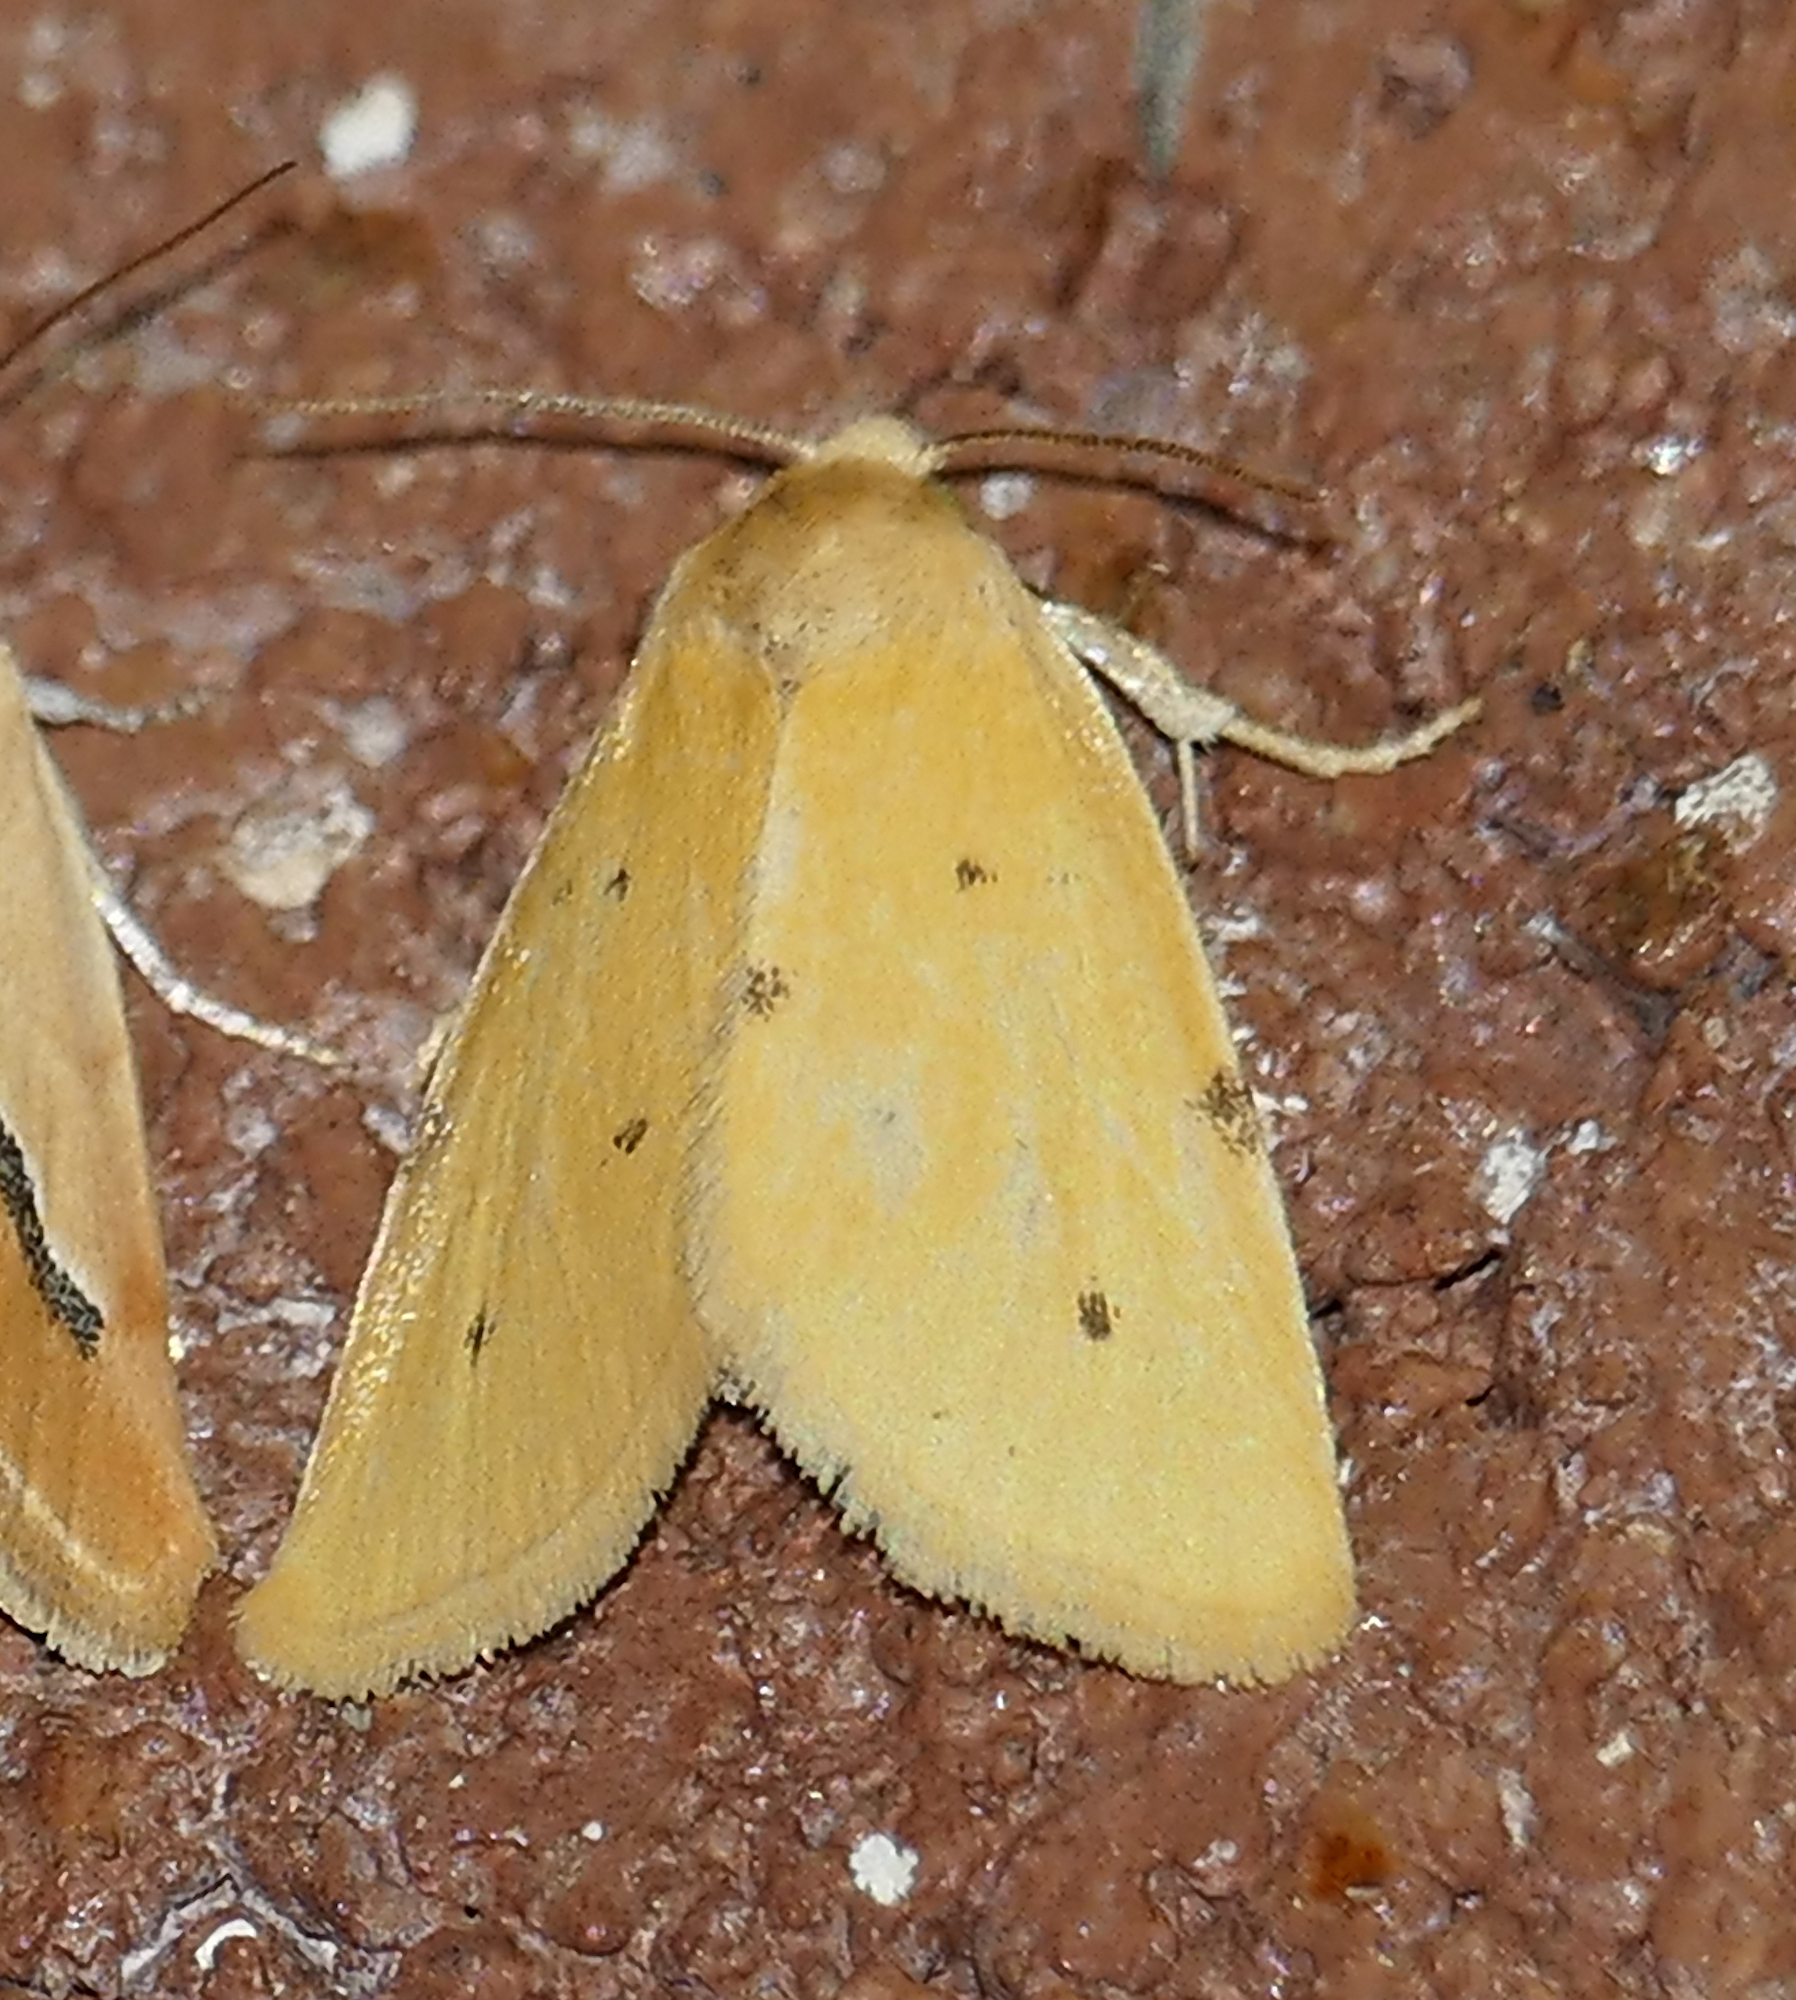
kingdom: Animalia
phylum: Arthropoda
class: Insecta
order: Lepidoptera
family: Noctuidae
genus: Azenia
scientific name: Azenia edentata
